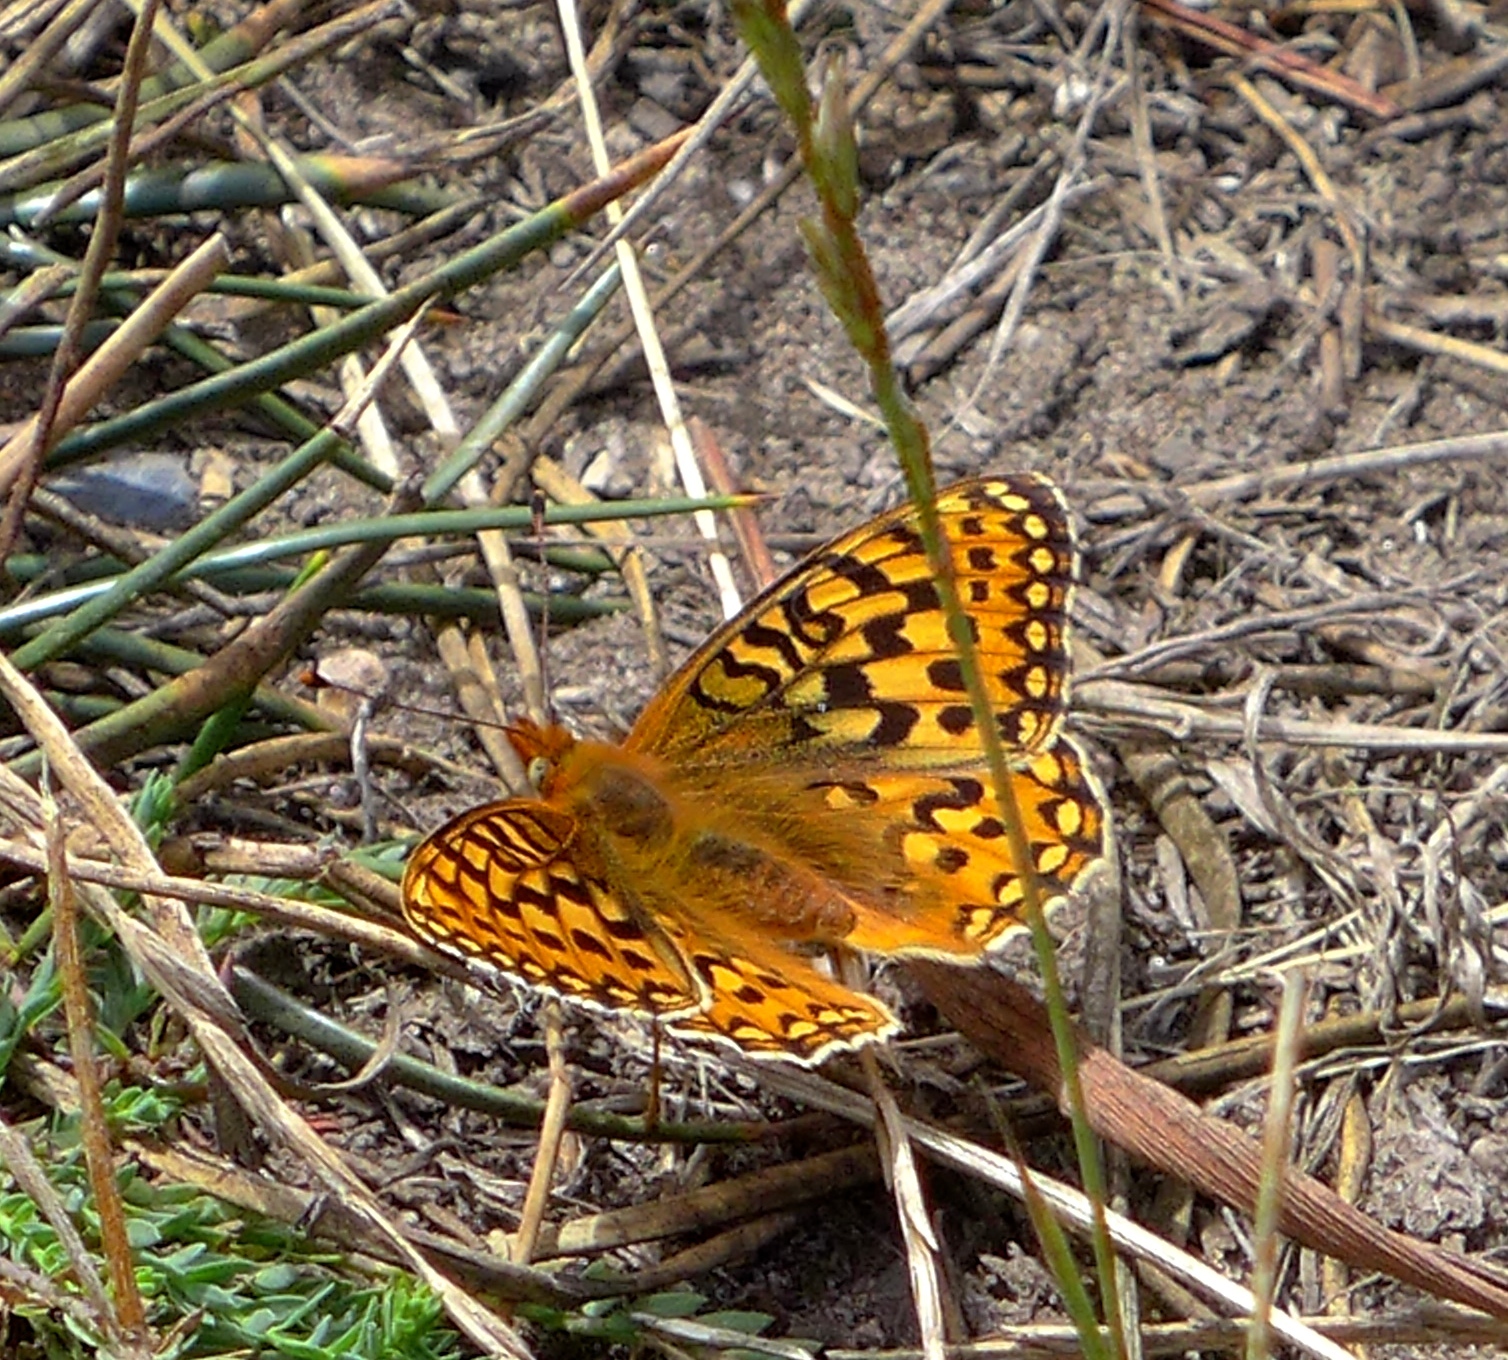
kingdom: Animalia
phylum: Arthropoda
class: Insecta
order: Lepidoptera
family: Nymphalidae
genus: Speyeria
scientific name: Speyeria zerene
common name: Zerene fritillary
